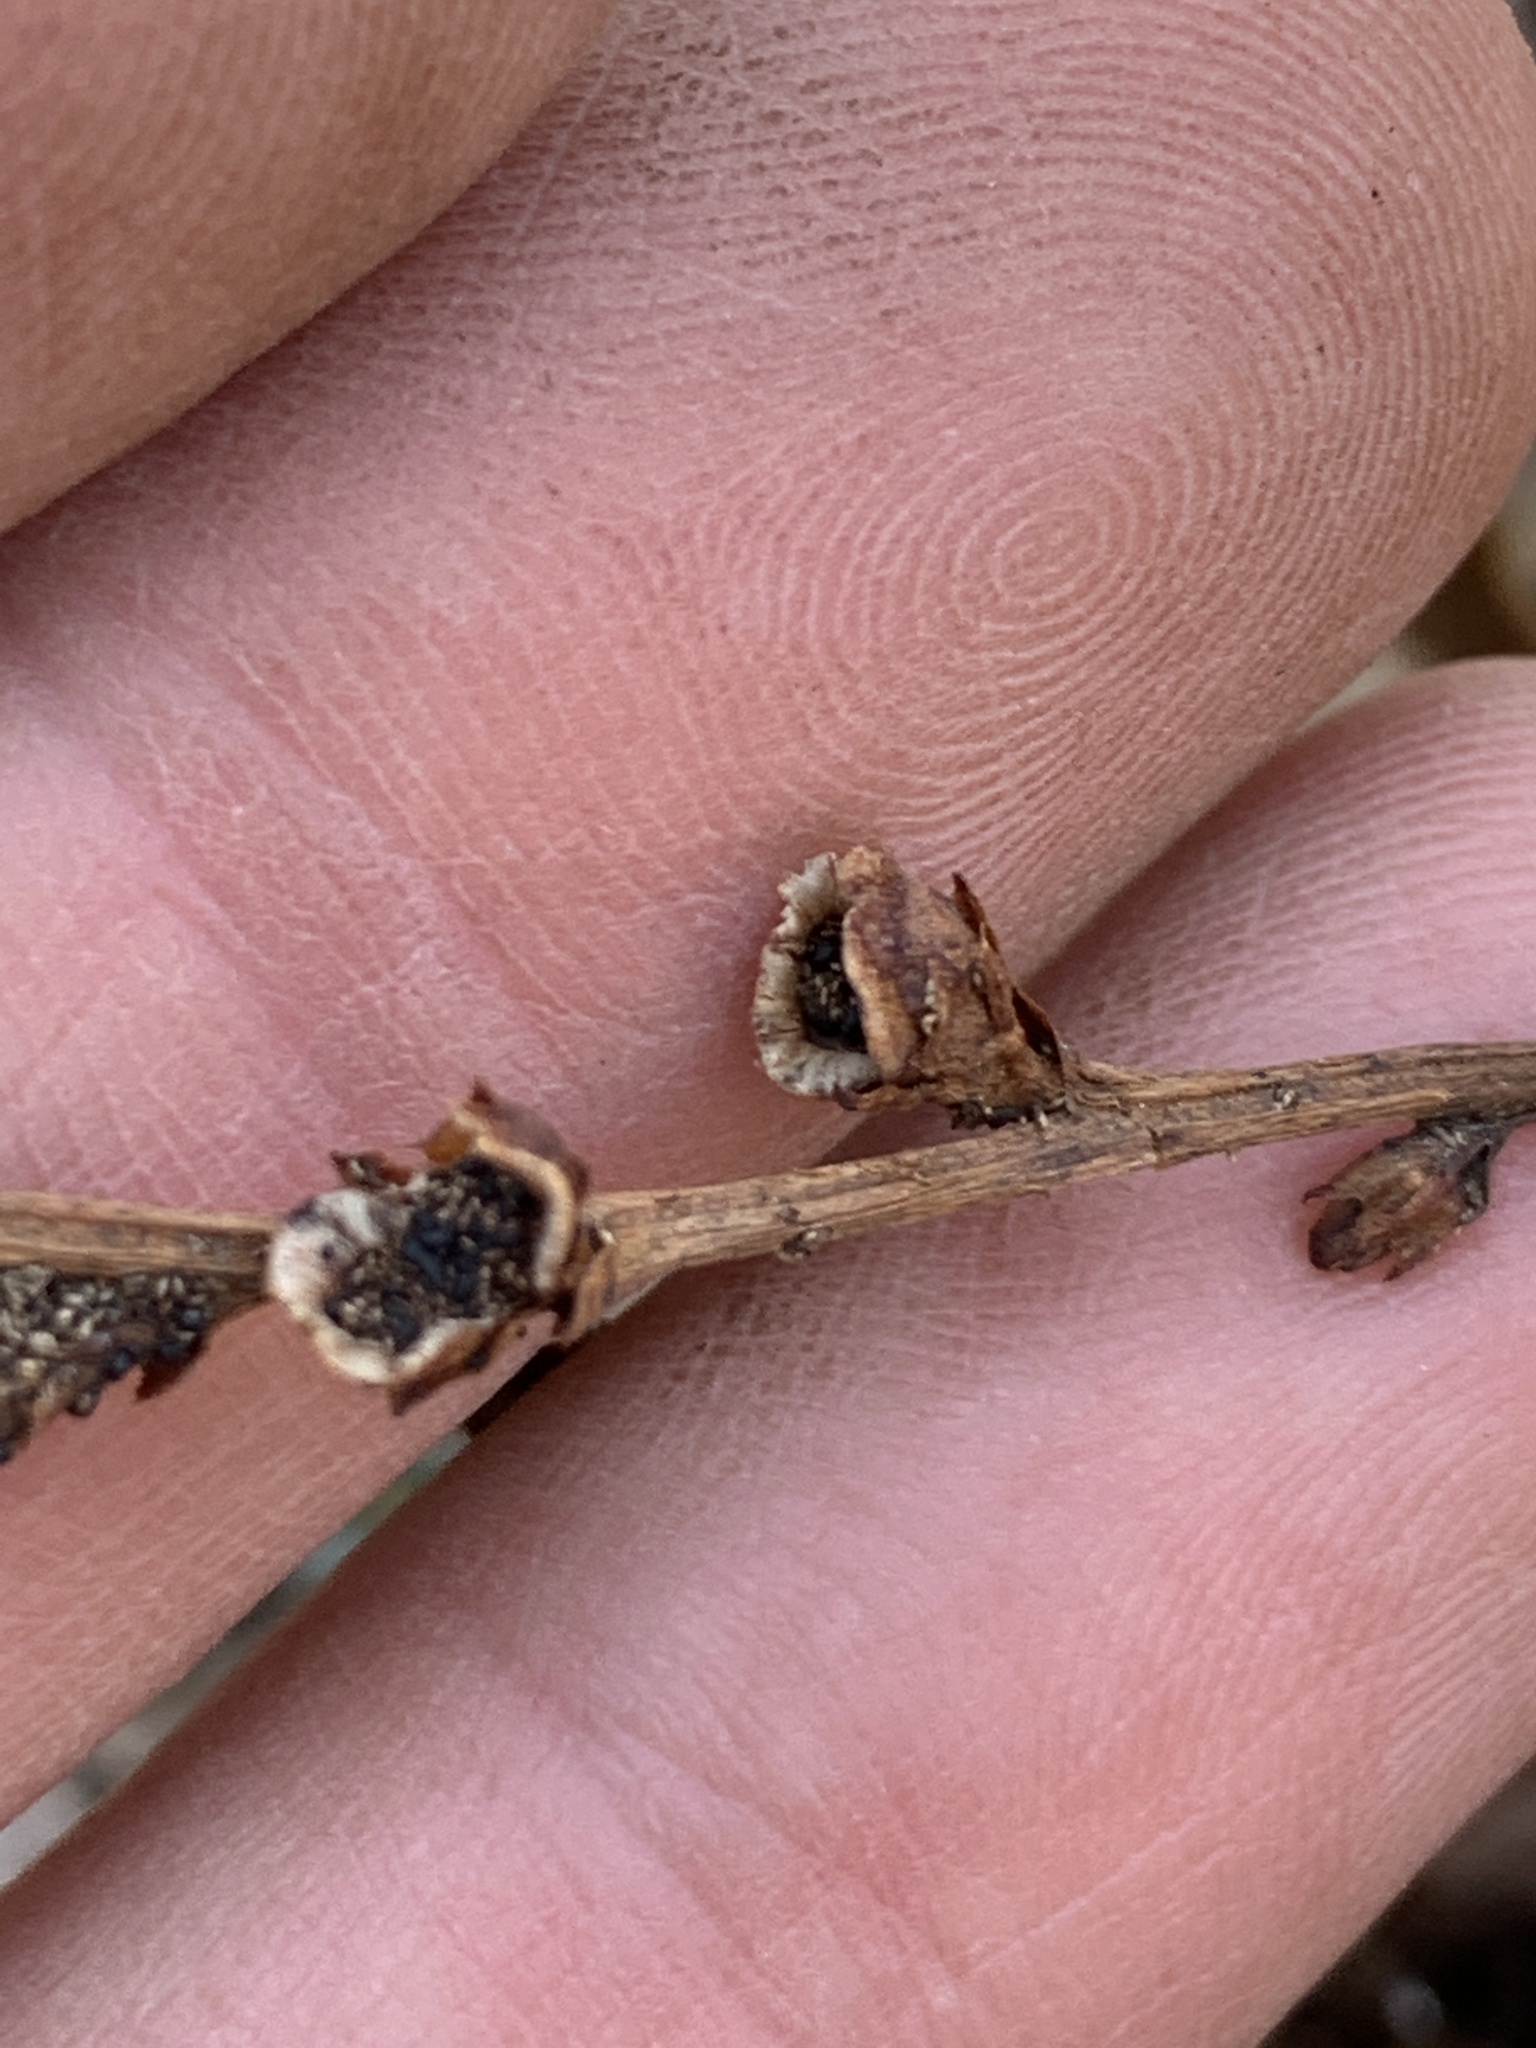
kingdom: Plantae
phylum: Tracheophyta
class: Magnoliopsida
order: Lamiales
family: Orobanchaceae
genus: Epifagus
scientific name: Epifagus virginiana
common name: Beechdrops
